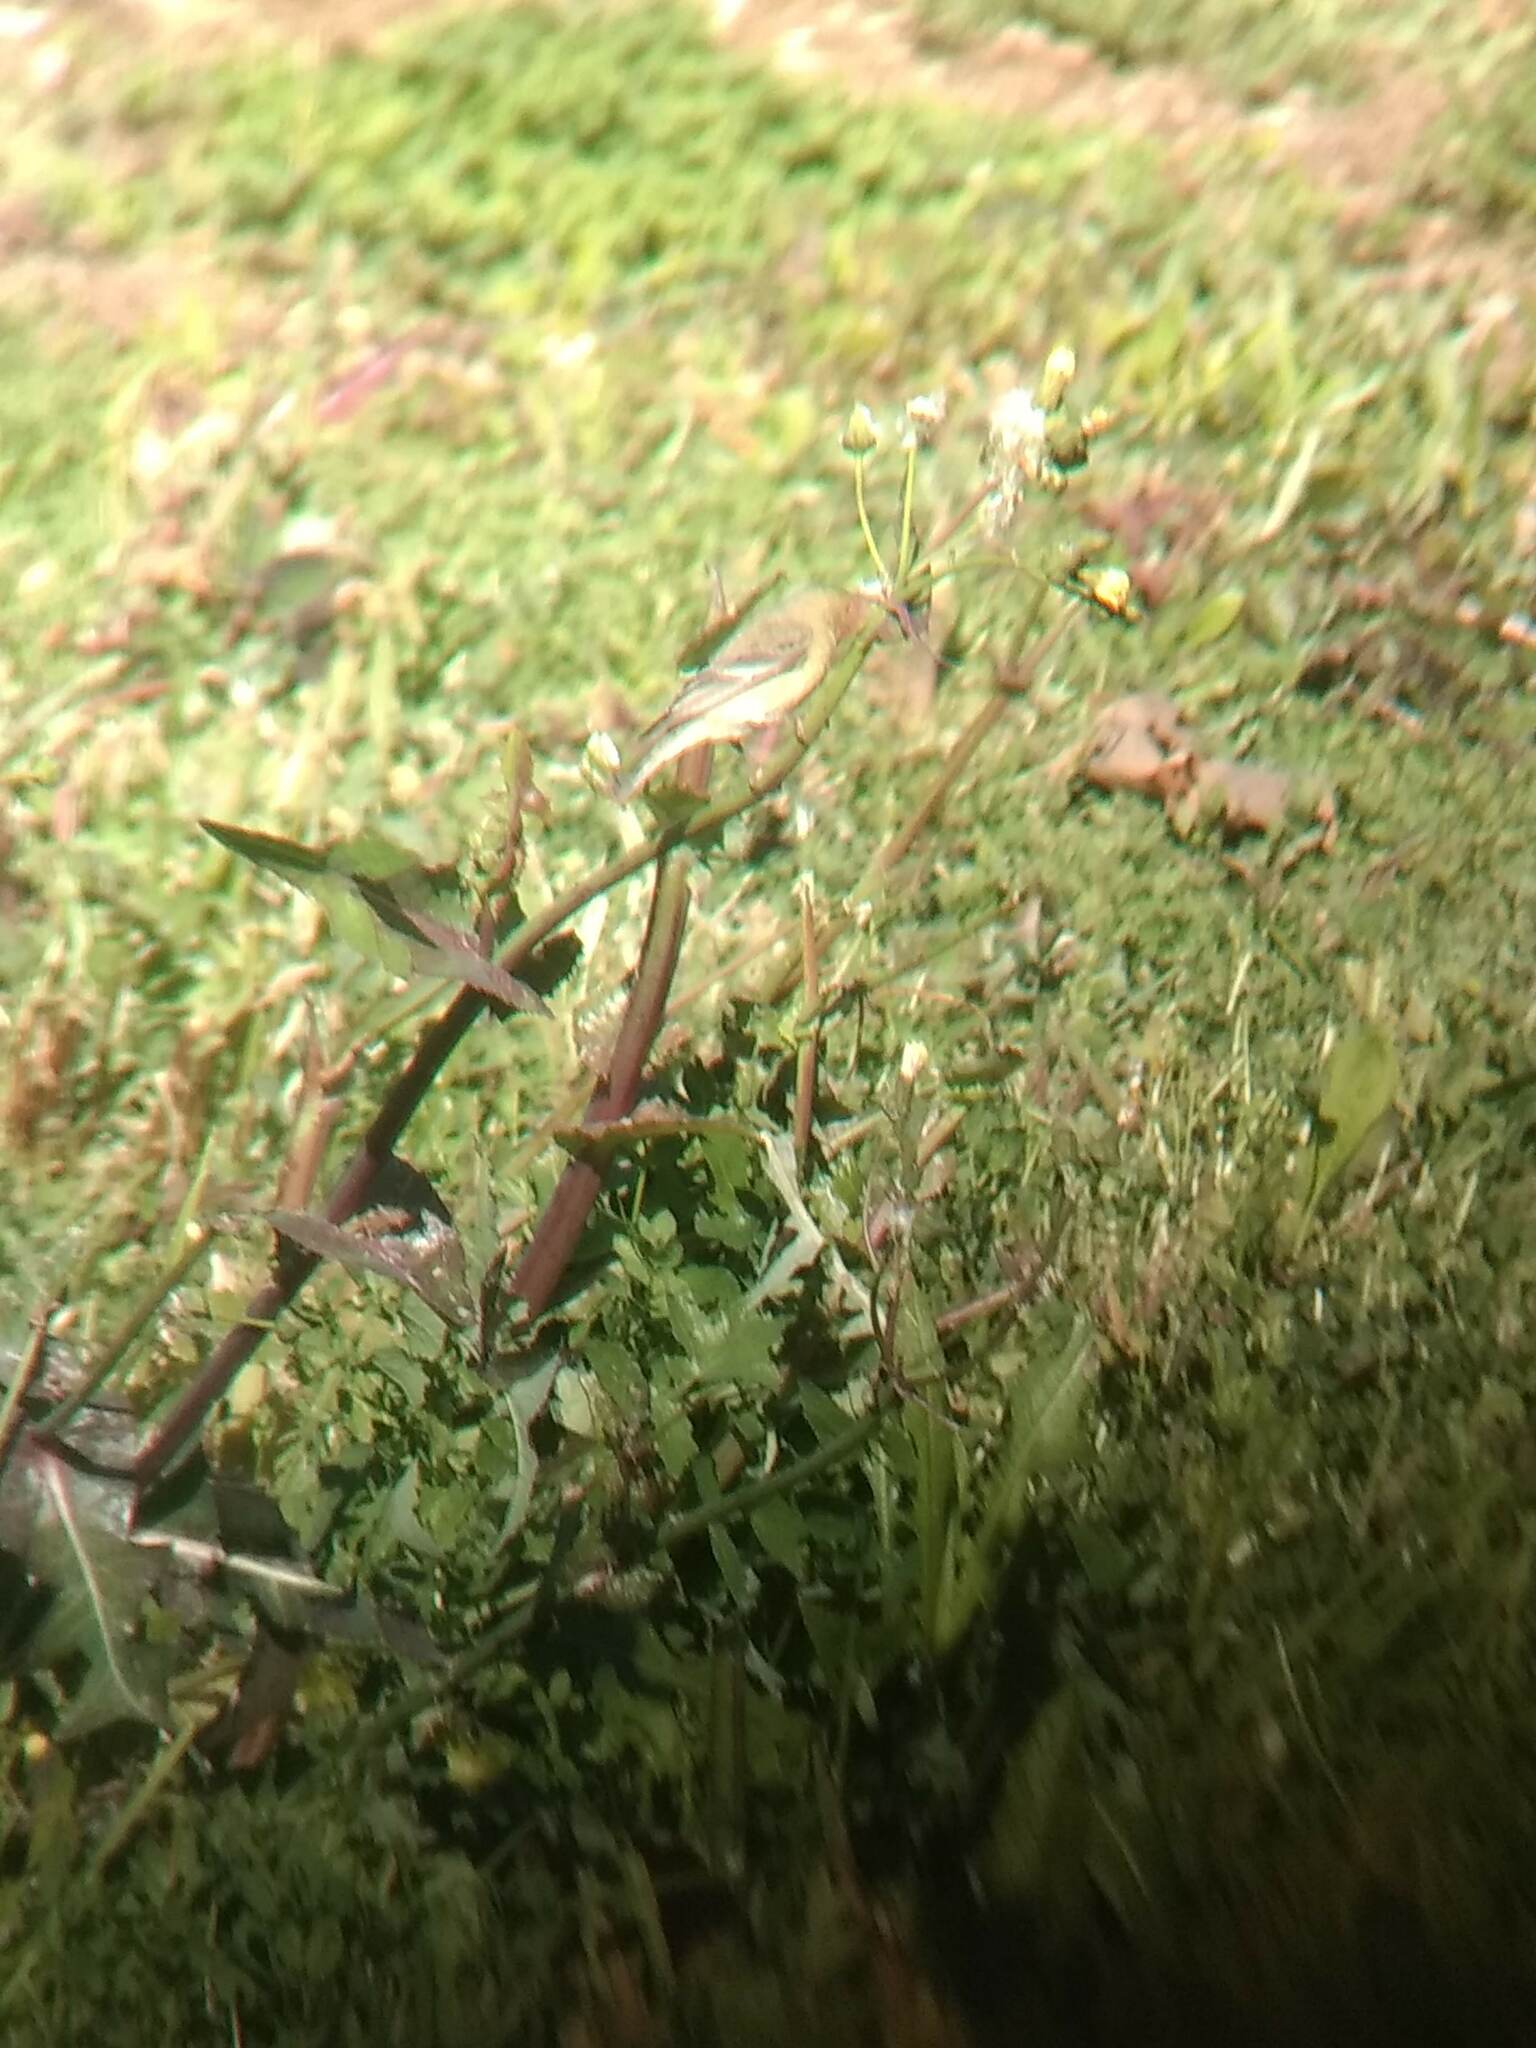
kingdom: Animalia
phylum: Chordata
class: Aves
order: Passeriformes
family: Fringillidae
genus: Spinus
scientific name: Spinus psaltria
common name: Lesser goldfinch
